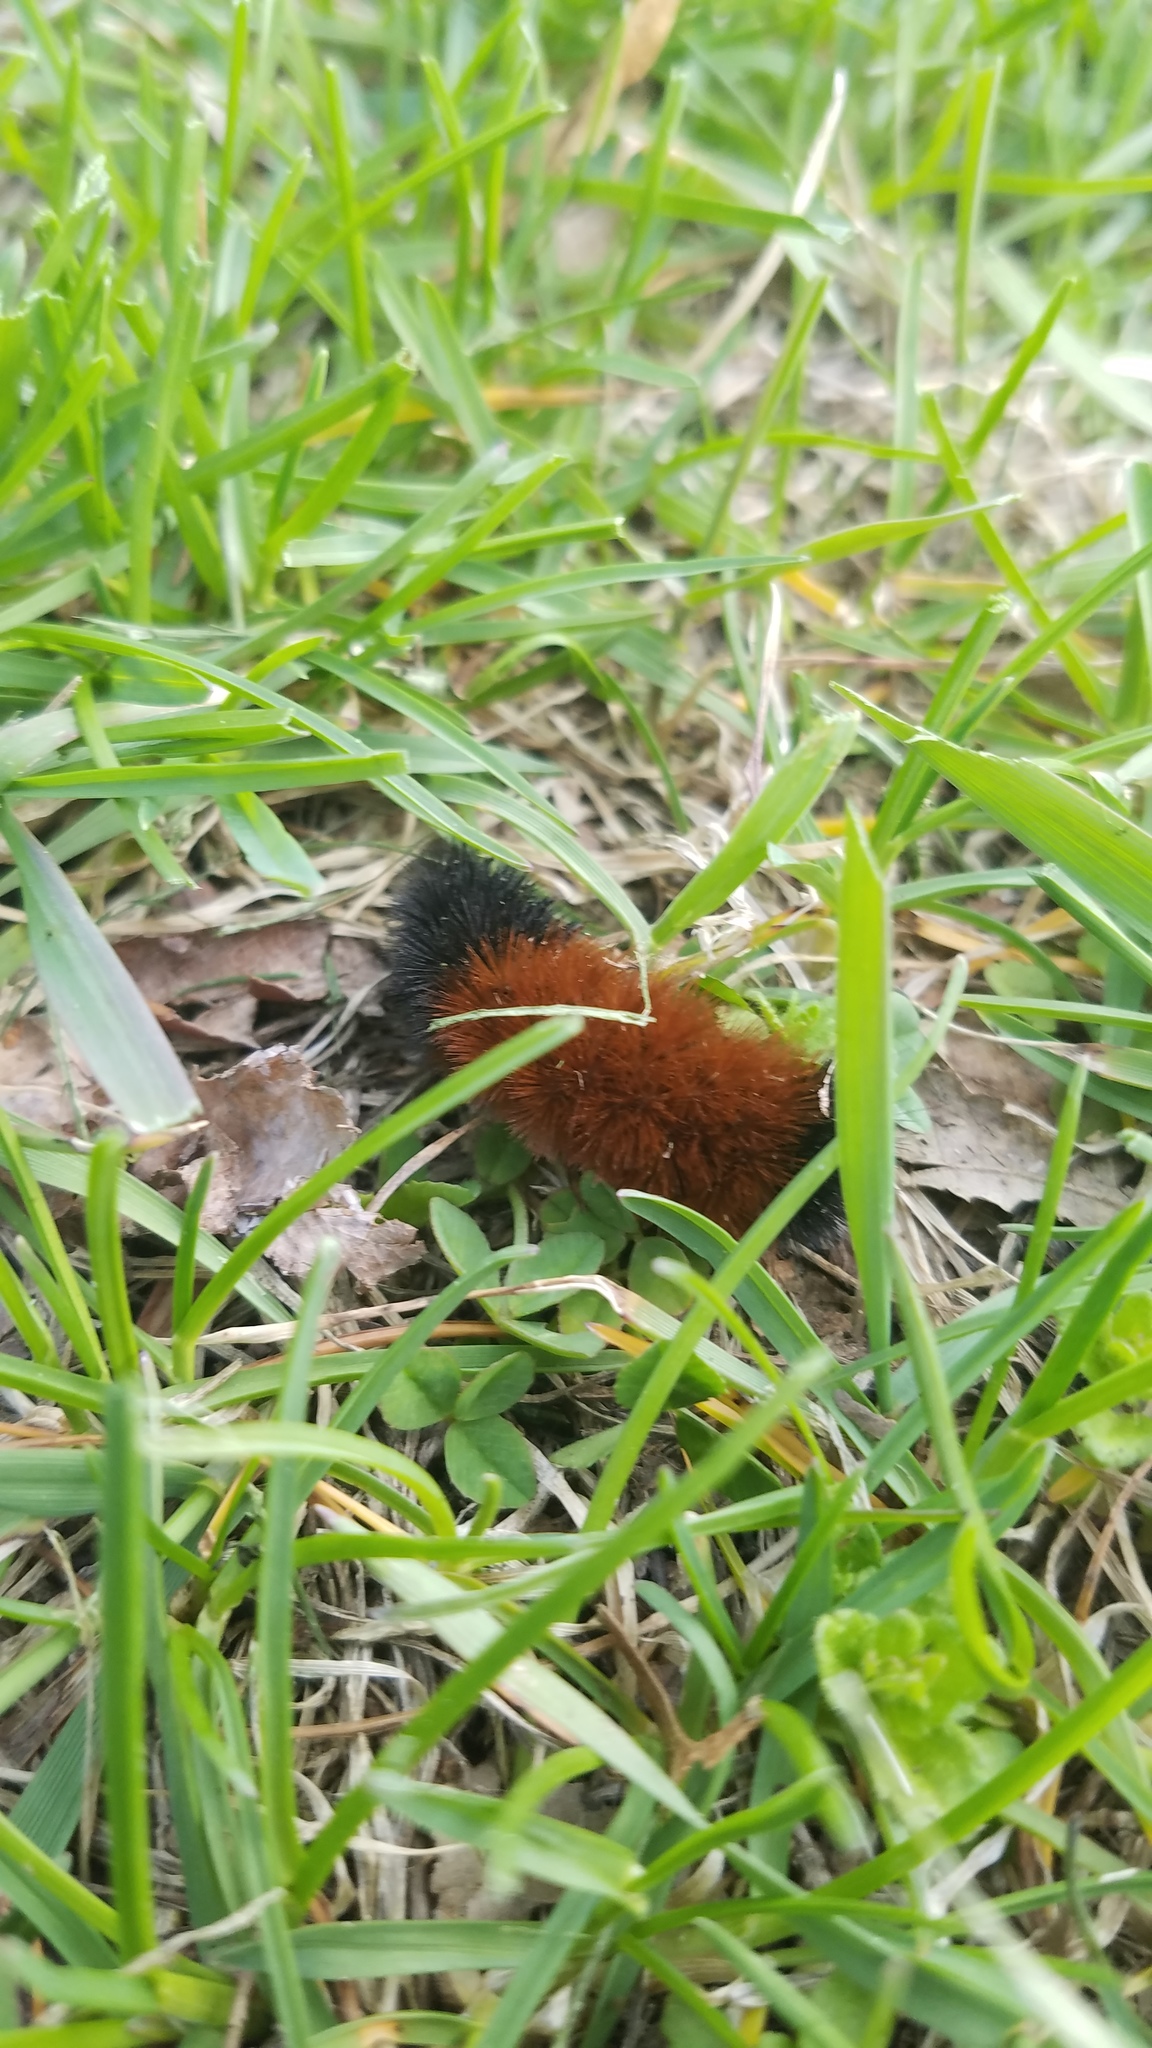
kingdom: Animalia
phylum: Arthropoda
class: Insecta
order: Lepidoptera
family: Erebidae
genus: Pyrrharctia
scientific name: Pyrrharctia isabella
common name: Isabella tiger moth
